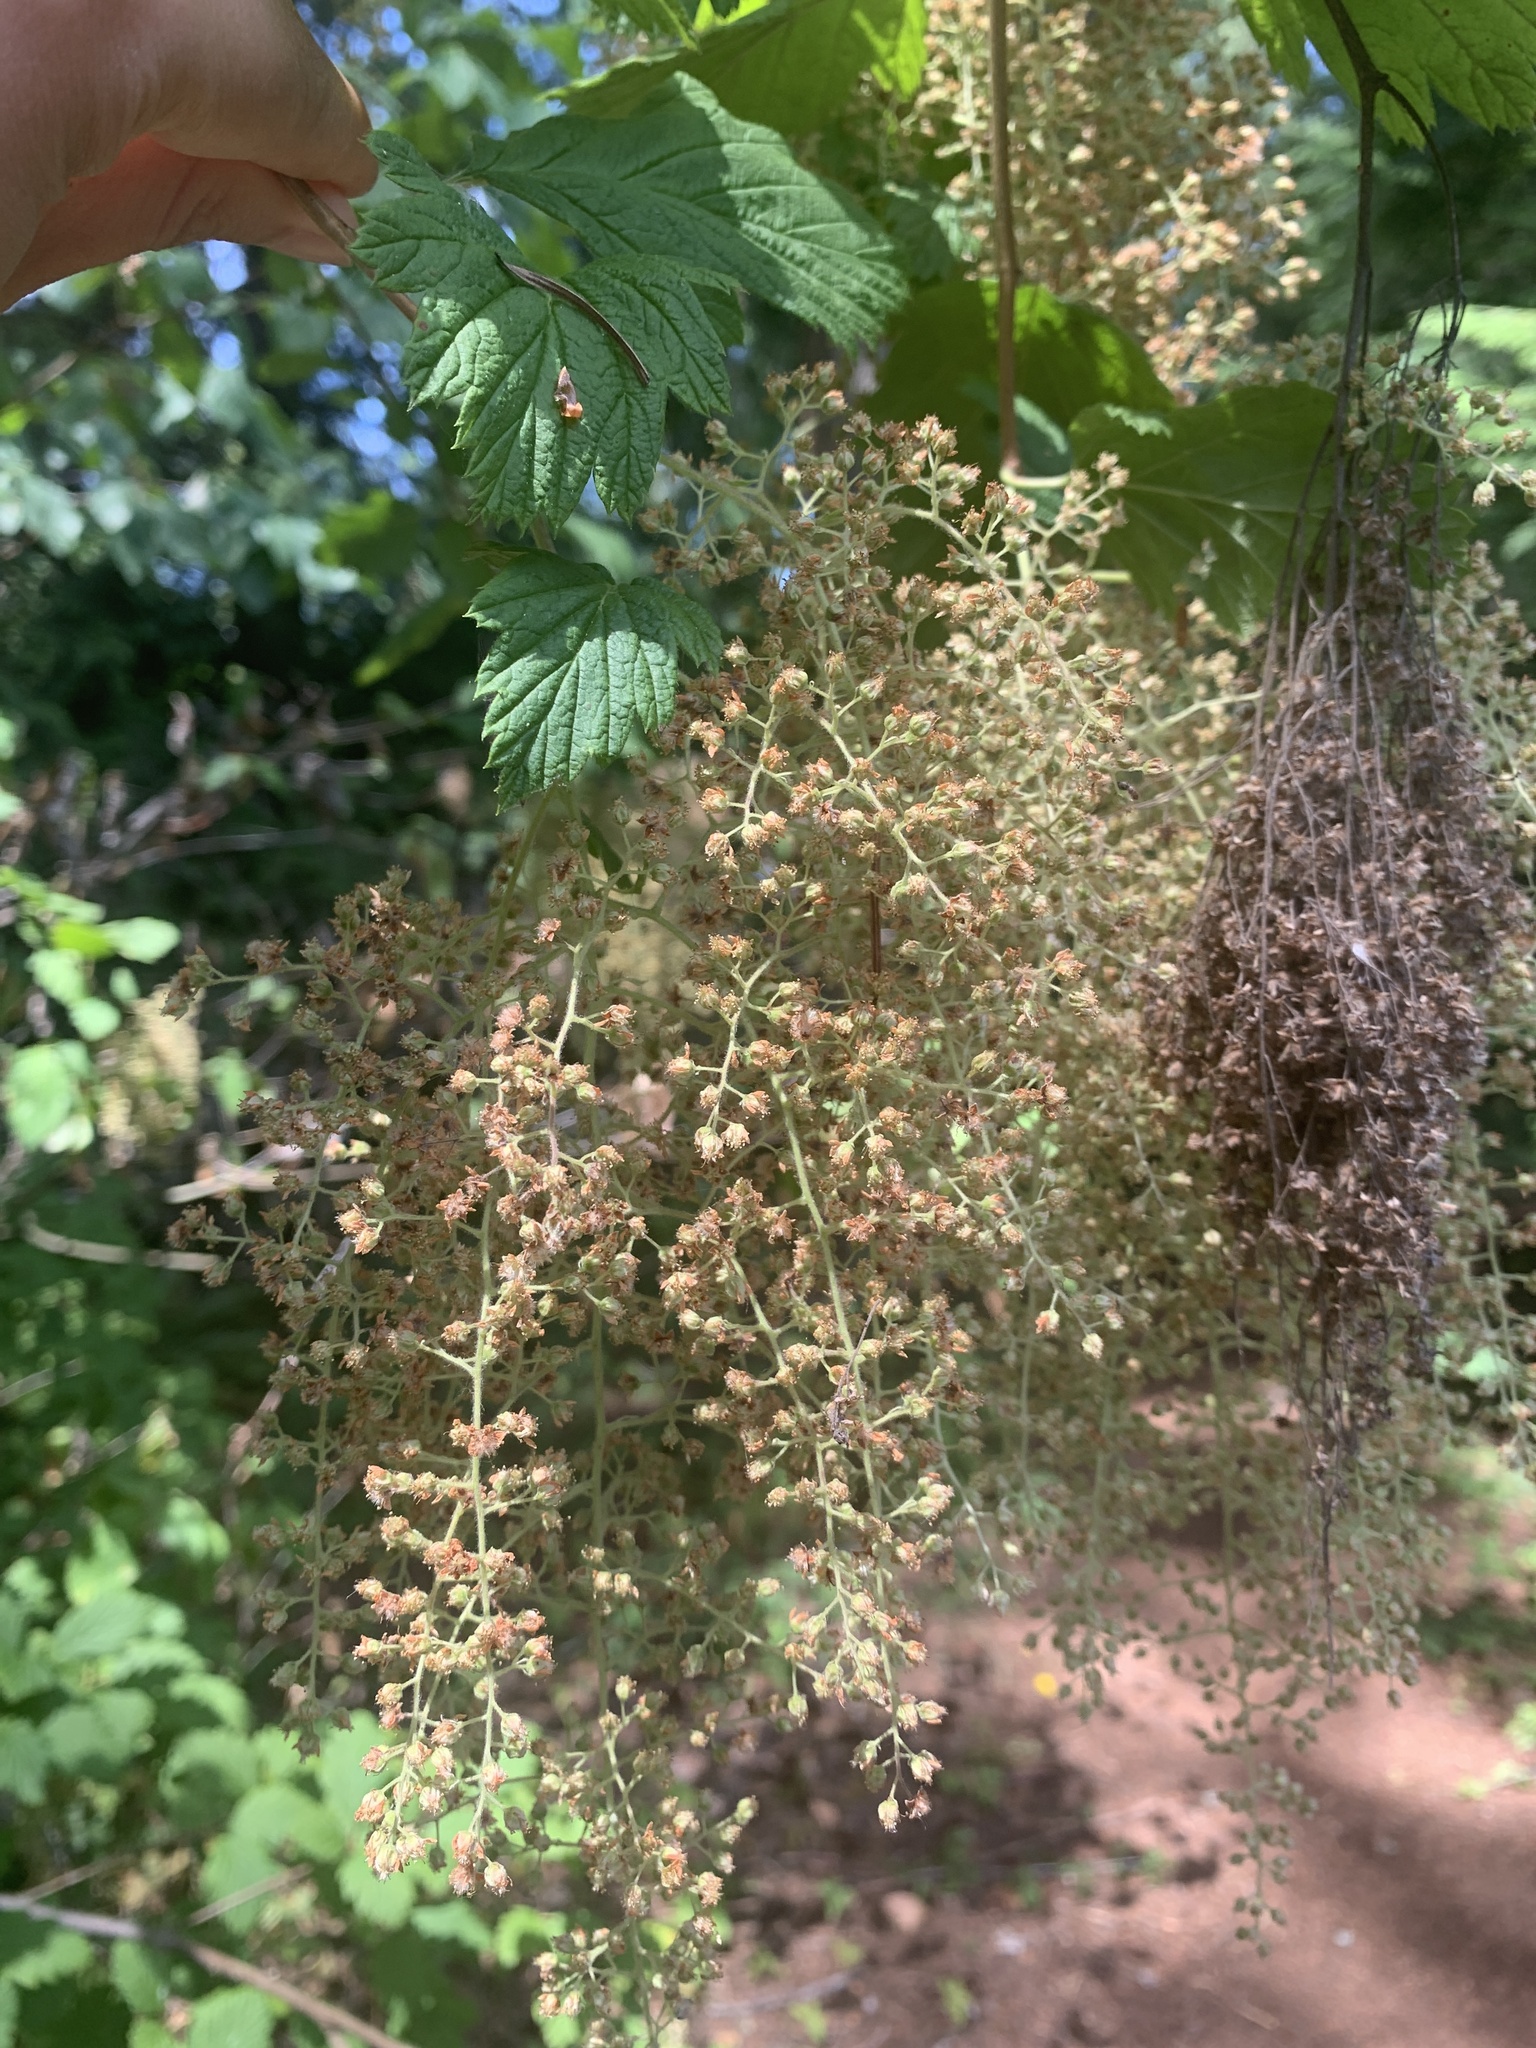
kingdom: Plantae
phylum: Tracheophyta
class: Magnoliopsida
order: Rosales
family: Rosaceae
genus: Holodiscus
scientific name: Holodiscus discolor
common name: Oceanspray
